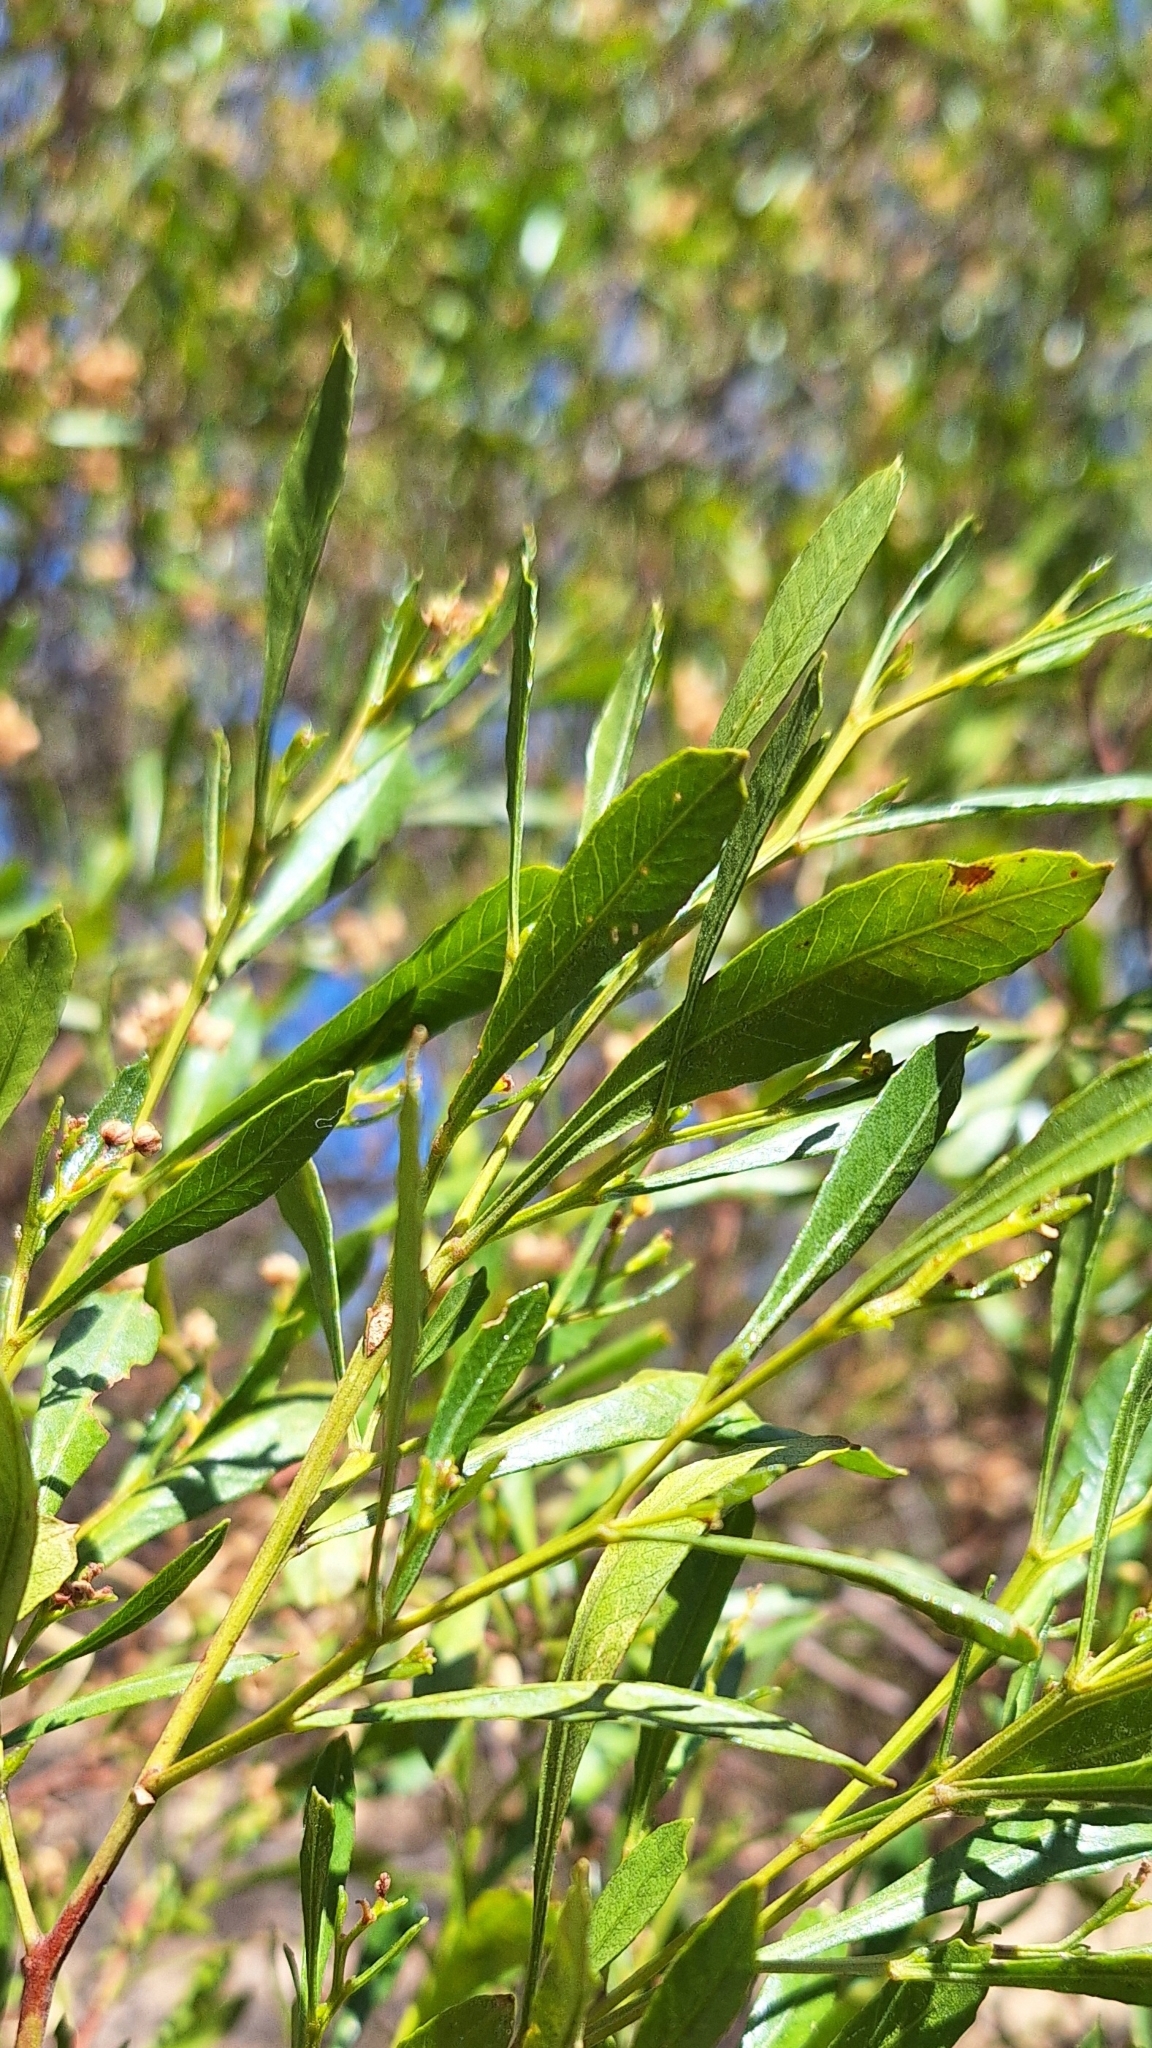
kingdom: Plantae
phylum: Tracheophyta
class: Magnoliopsida
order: Sapindales
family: Sapindaceae
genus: Dodonaea
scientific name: Dodonaea viscosa
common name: Hopbush
